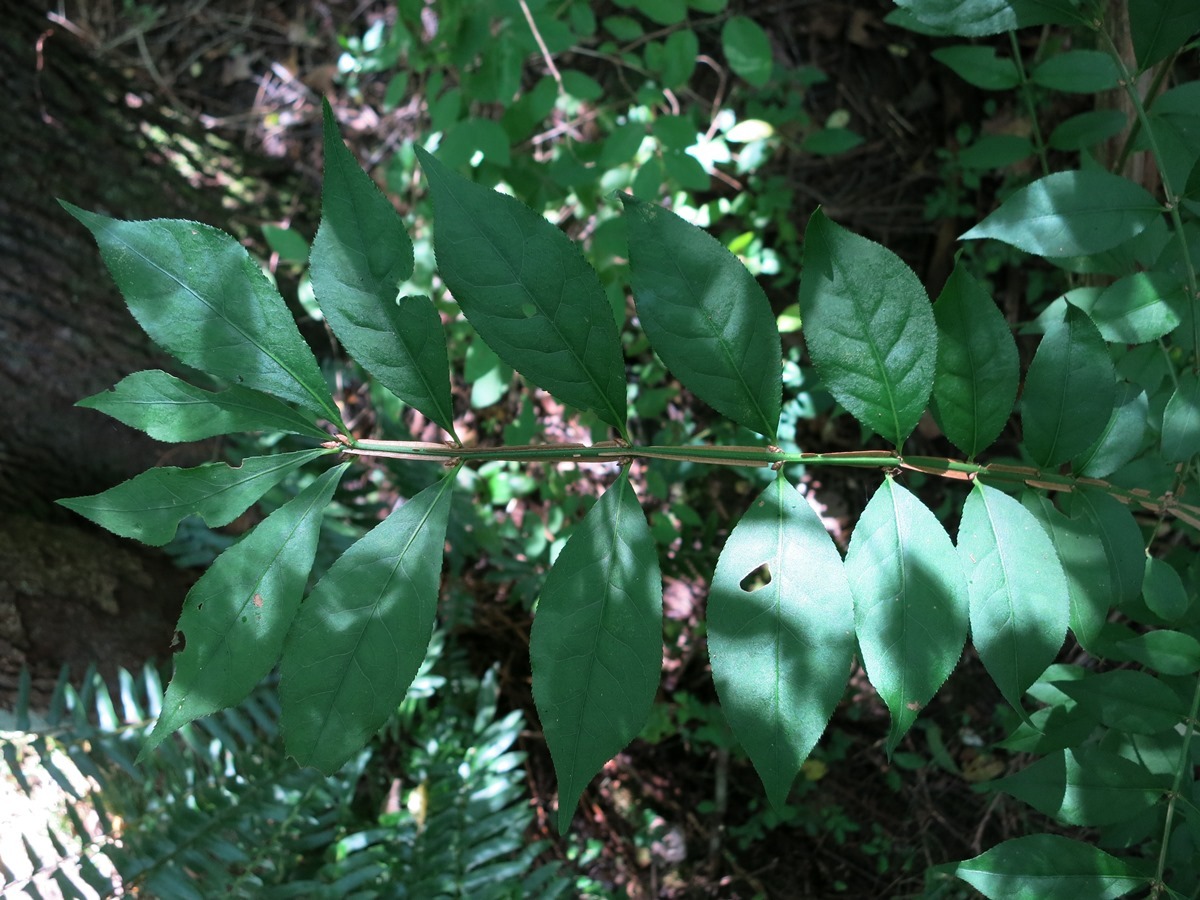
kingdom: Plantae
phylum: Tracheophyta
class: Magnoliopsida
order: Celastrales
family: Celastraceae
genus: Euonymus
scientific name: Euonymus alatus
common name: Winged euonymus
